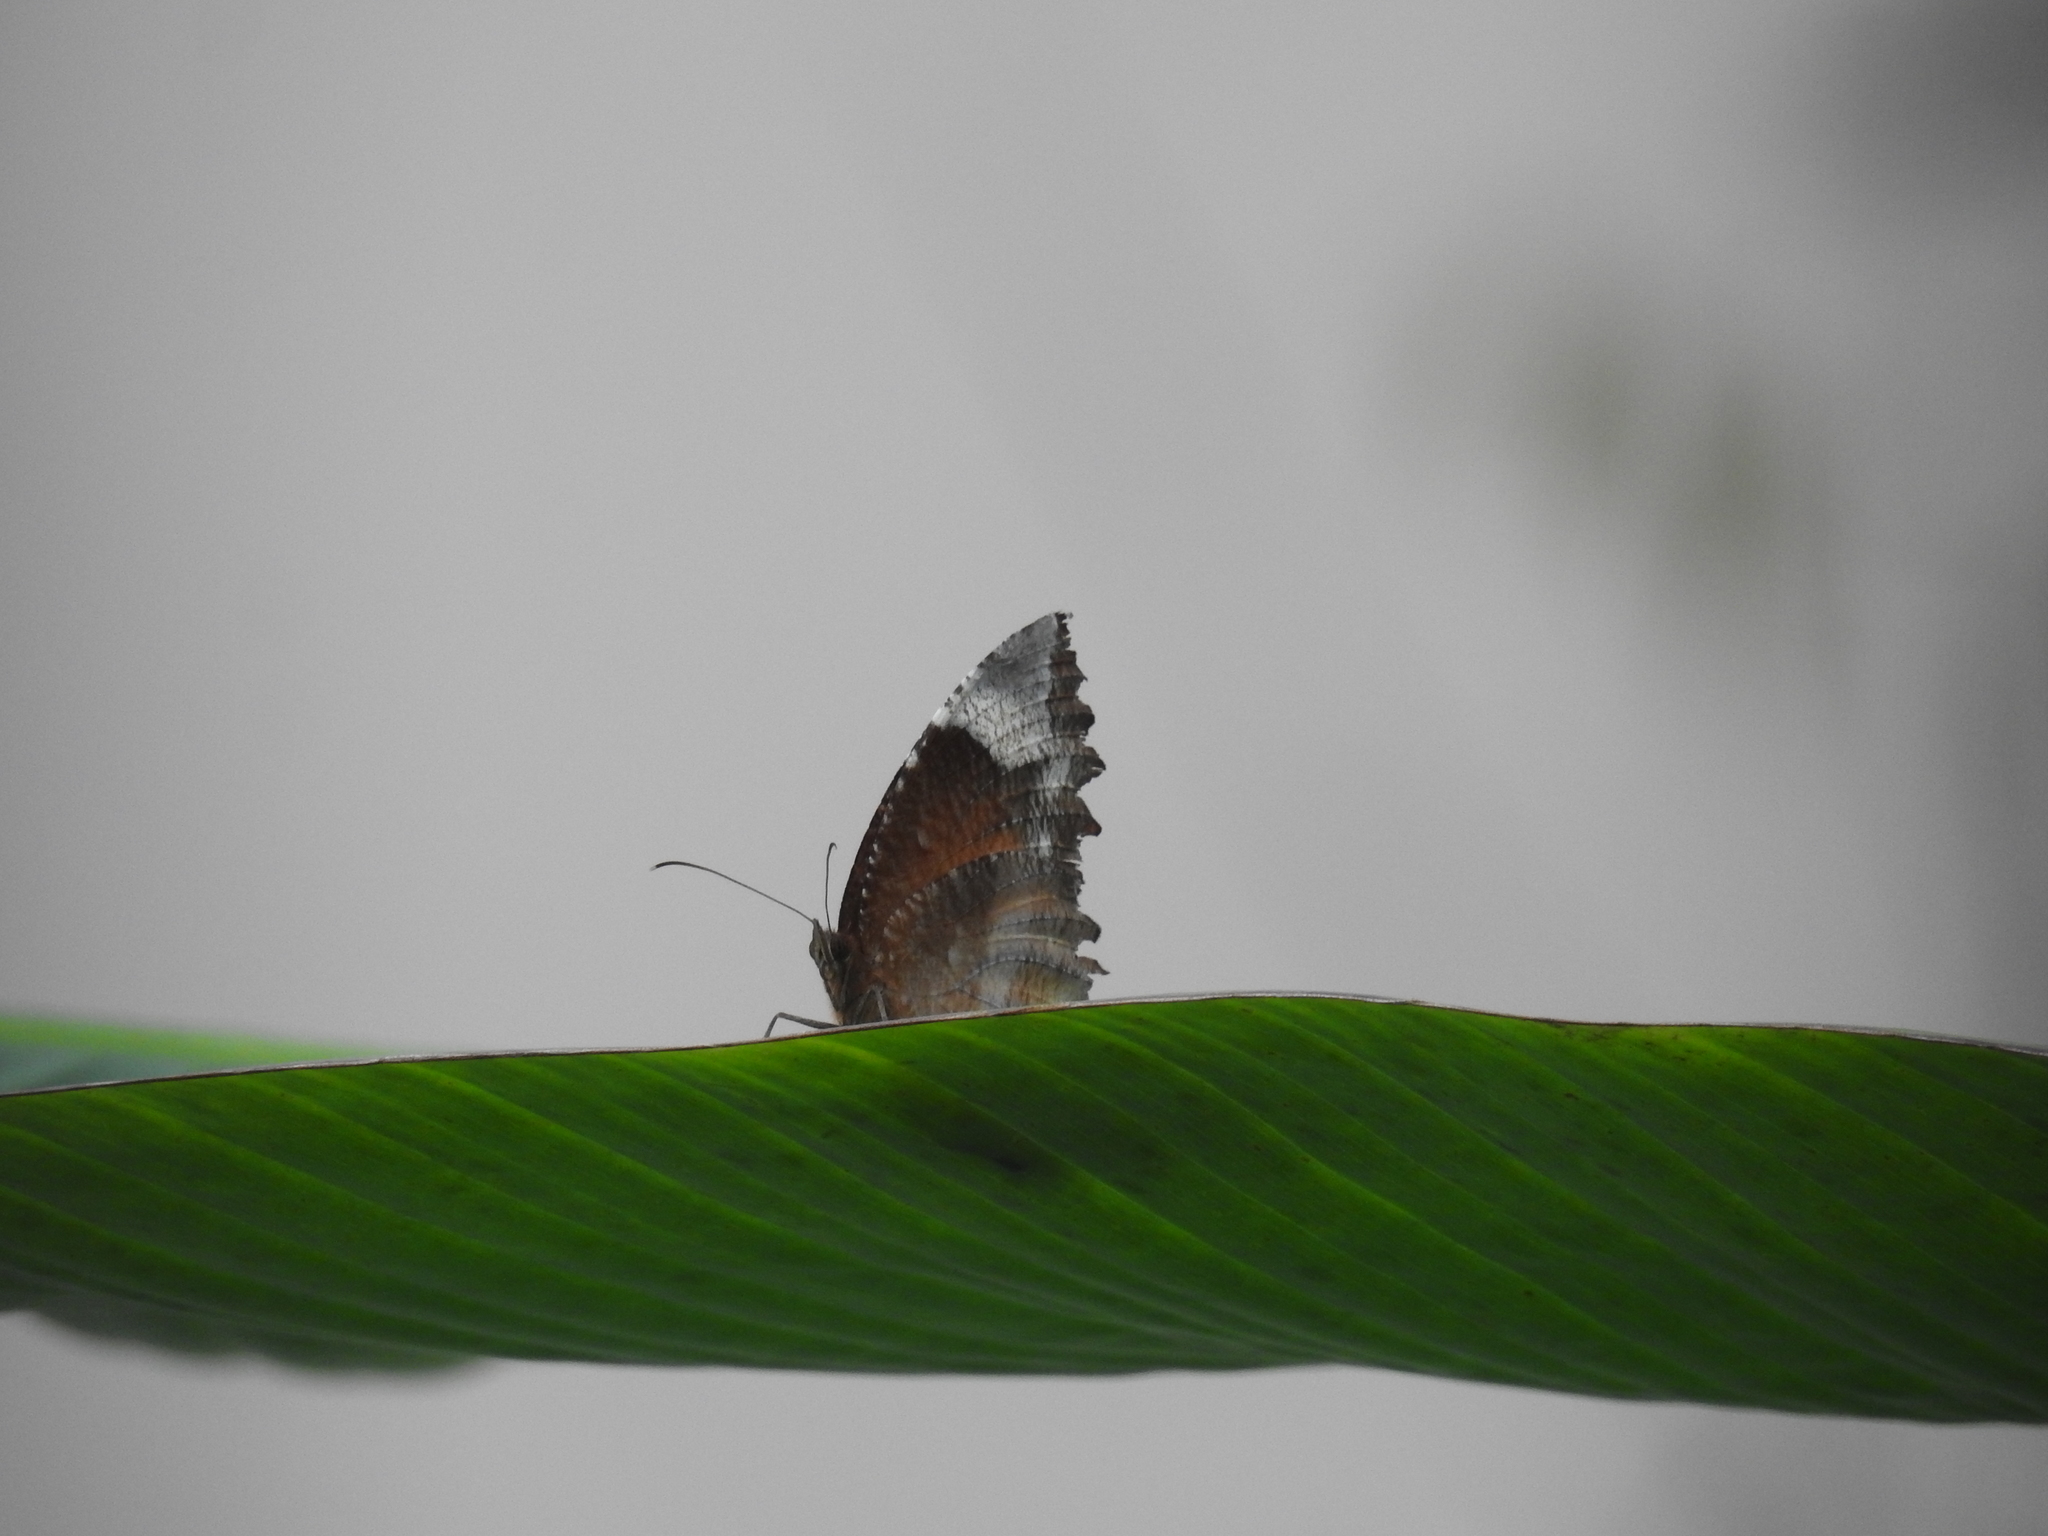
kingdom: Animalia
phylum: Arthropoda
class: Insecta
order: Lepidoptera
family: Nymphalidae
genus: Elymnias
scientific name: Elymnias caudata
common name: Tailed palmfly
